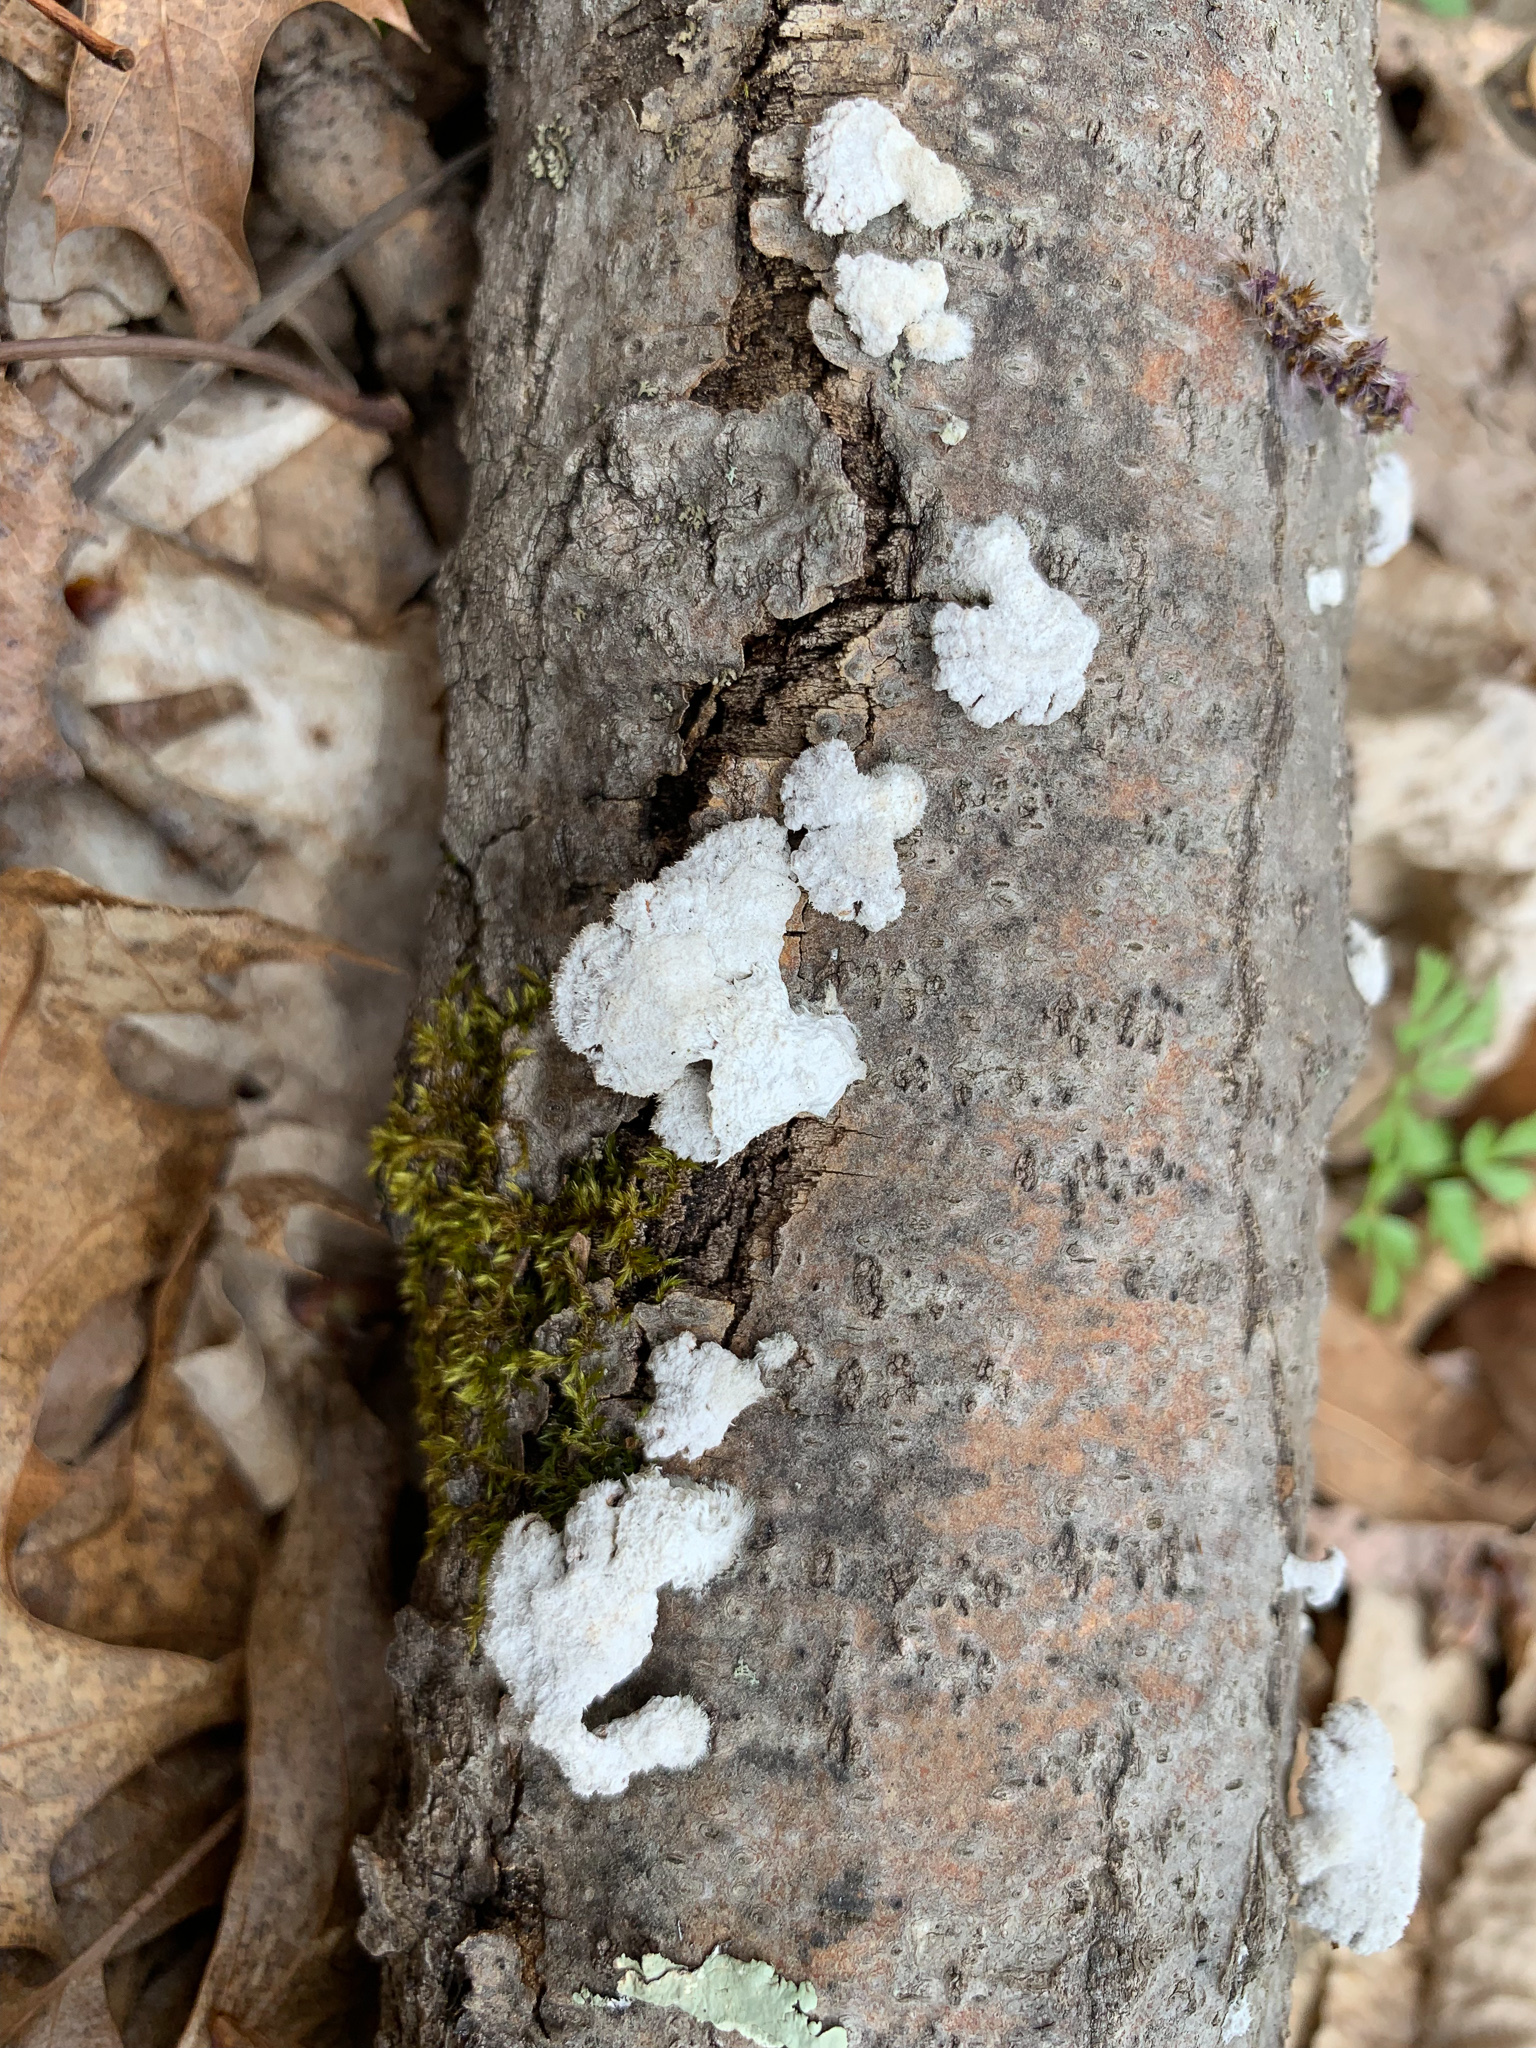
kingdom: Fungi
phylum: Basidiomycota
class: Agaricomycetes
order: Agaricales
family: Schizophyllaceae
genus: Schizophyllum
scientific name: Schizophyllum commune
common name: Common porecrust
